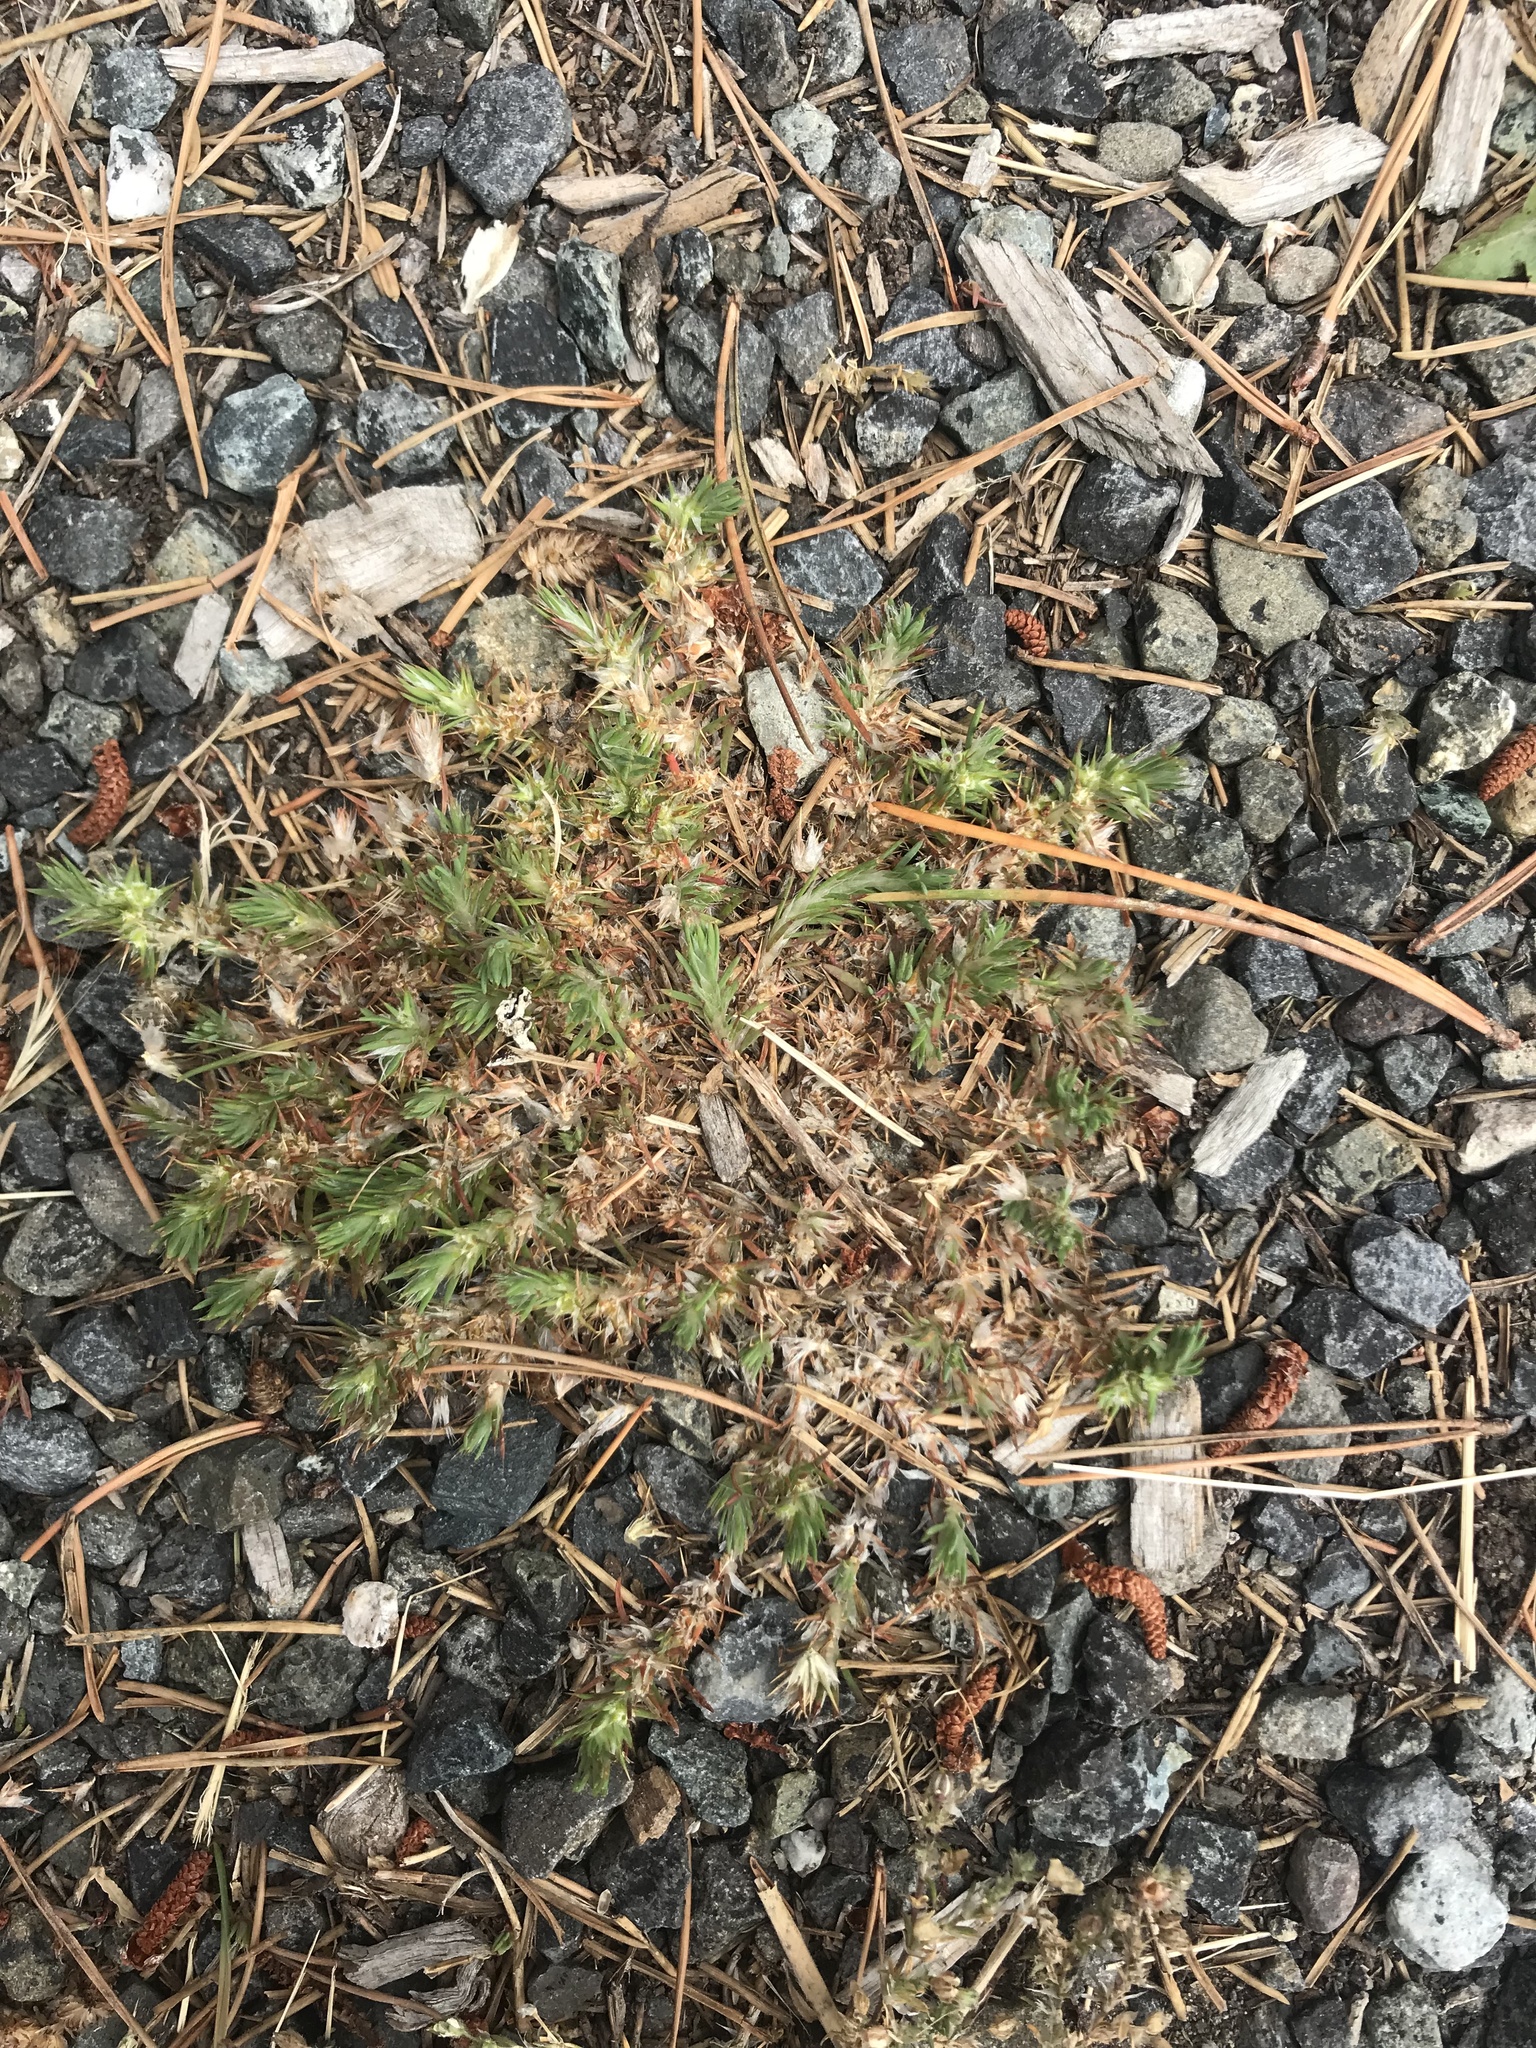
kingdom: Plantae
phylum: Tracheophyta
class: Magnoliopsida
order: Caryophyllales
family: Caryophyllaceae
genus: Cardionema
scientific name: Cardionema ramosissima
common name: Sandcarpet
